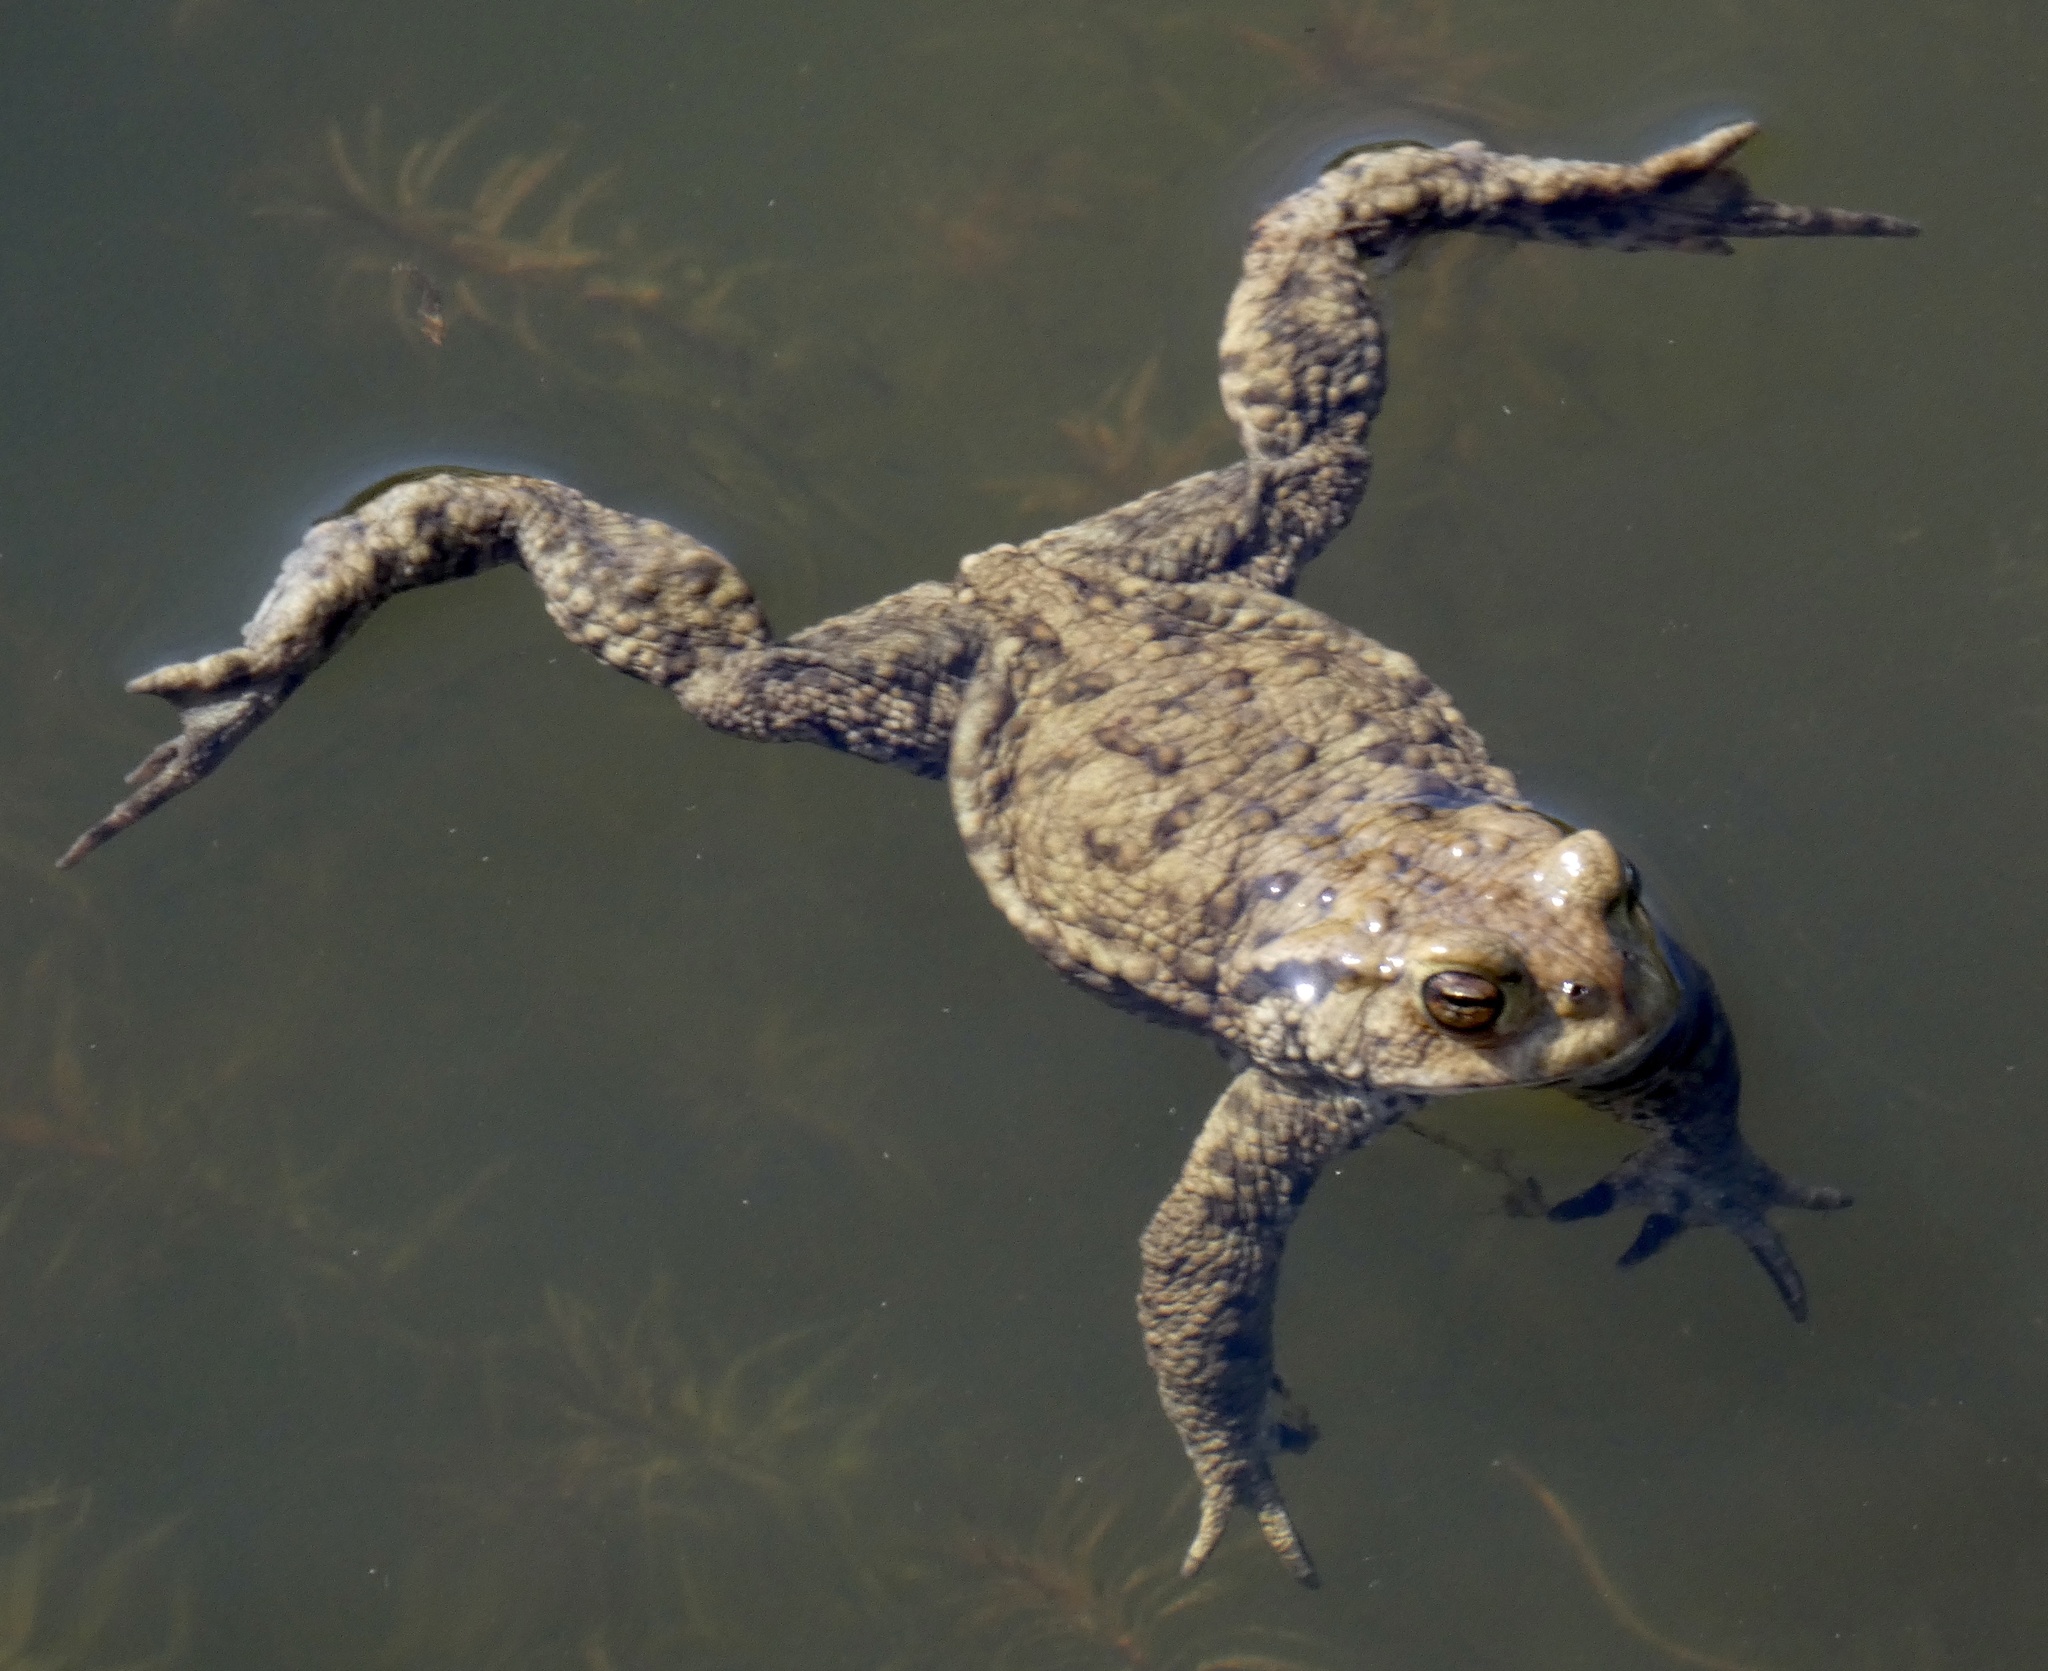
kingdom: Animalia
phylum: Chordata
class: Amphibia
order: Anura
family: Bufonidae
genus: Bufo
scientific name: Bufo bufo
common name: Common toad
